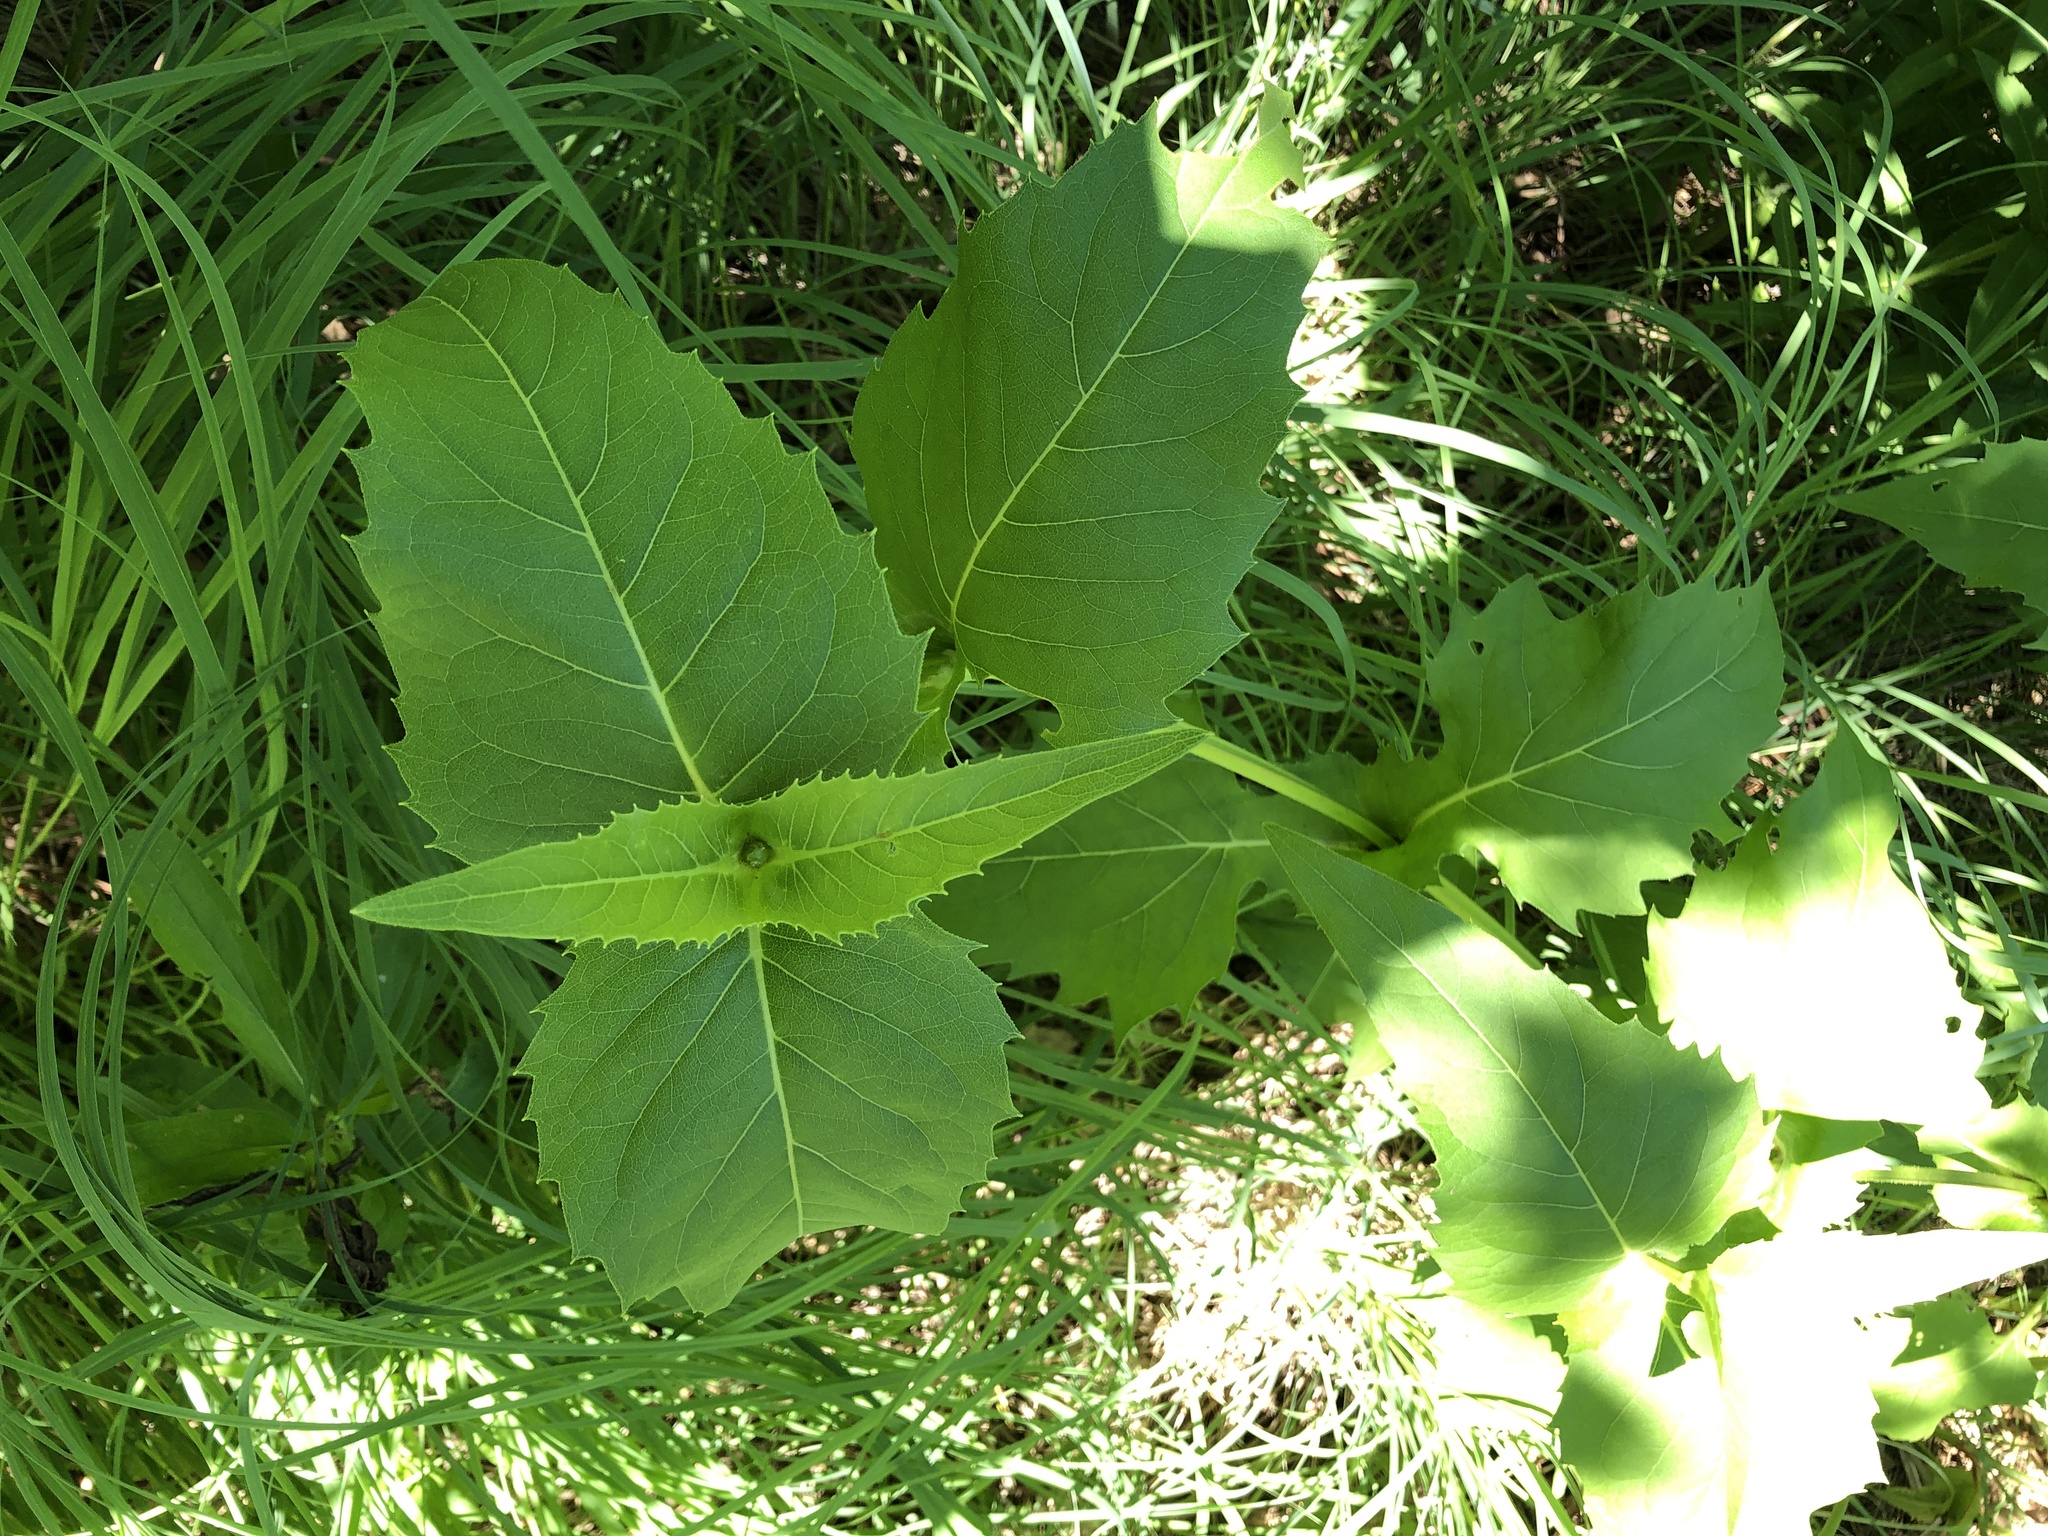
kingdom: Plantae
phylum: Tracheophyta
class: Magnoliopsida
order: Asterales
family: Asteraceae
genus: Silphium
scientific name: Silphium perfoliatum
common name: Cup-plant
